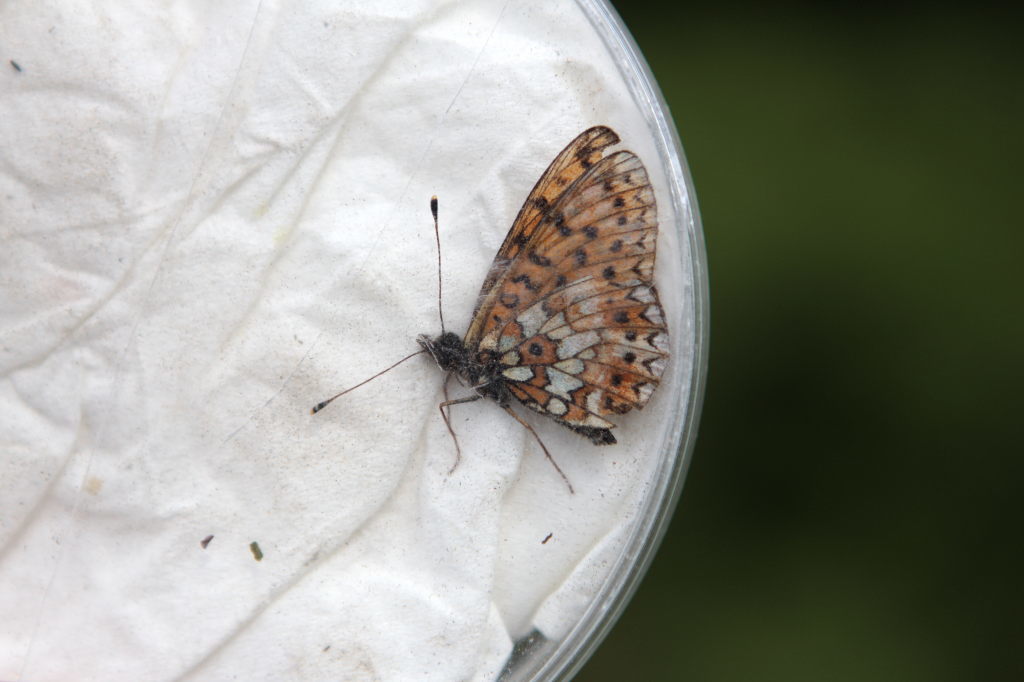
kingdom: Animalia
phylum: Arthropoda
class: Insecta
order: Lepidoptera
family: Nymphalidae
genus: Boloria
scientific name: Boloria selene
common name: Small pearl-bordered fritillary
